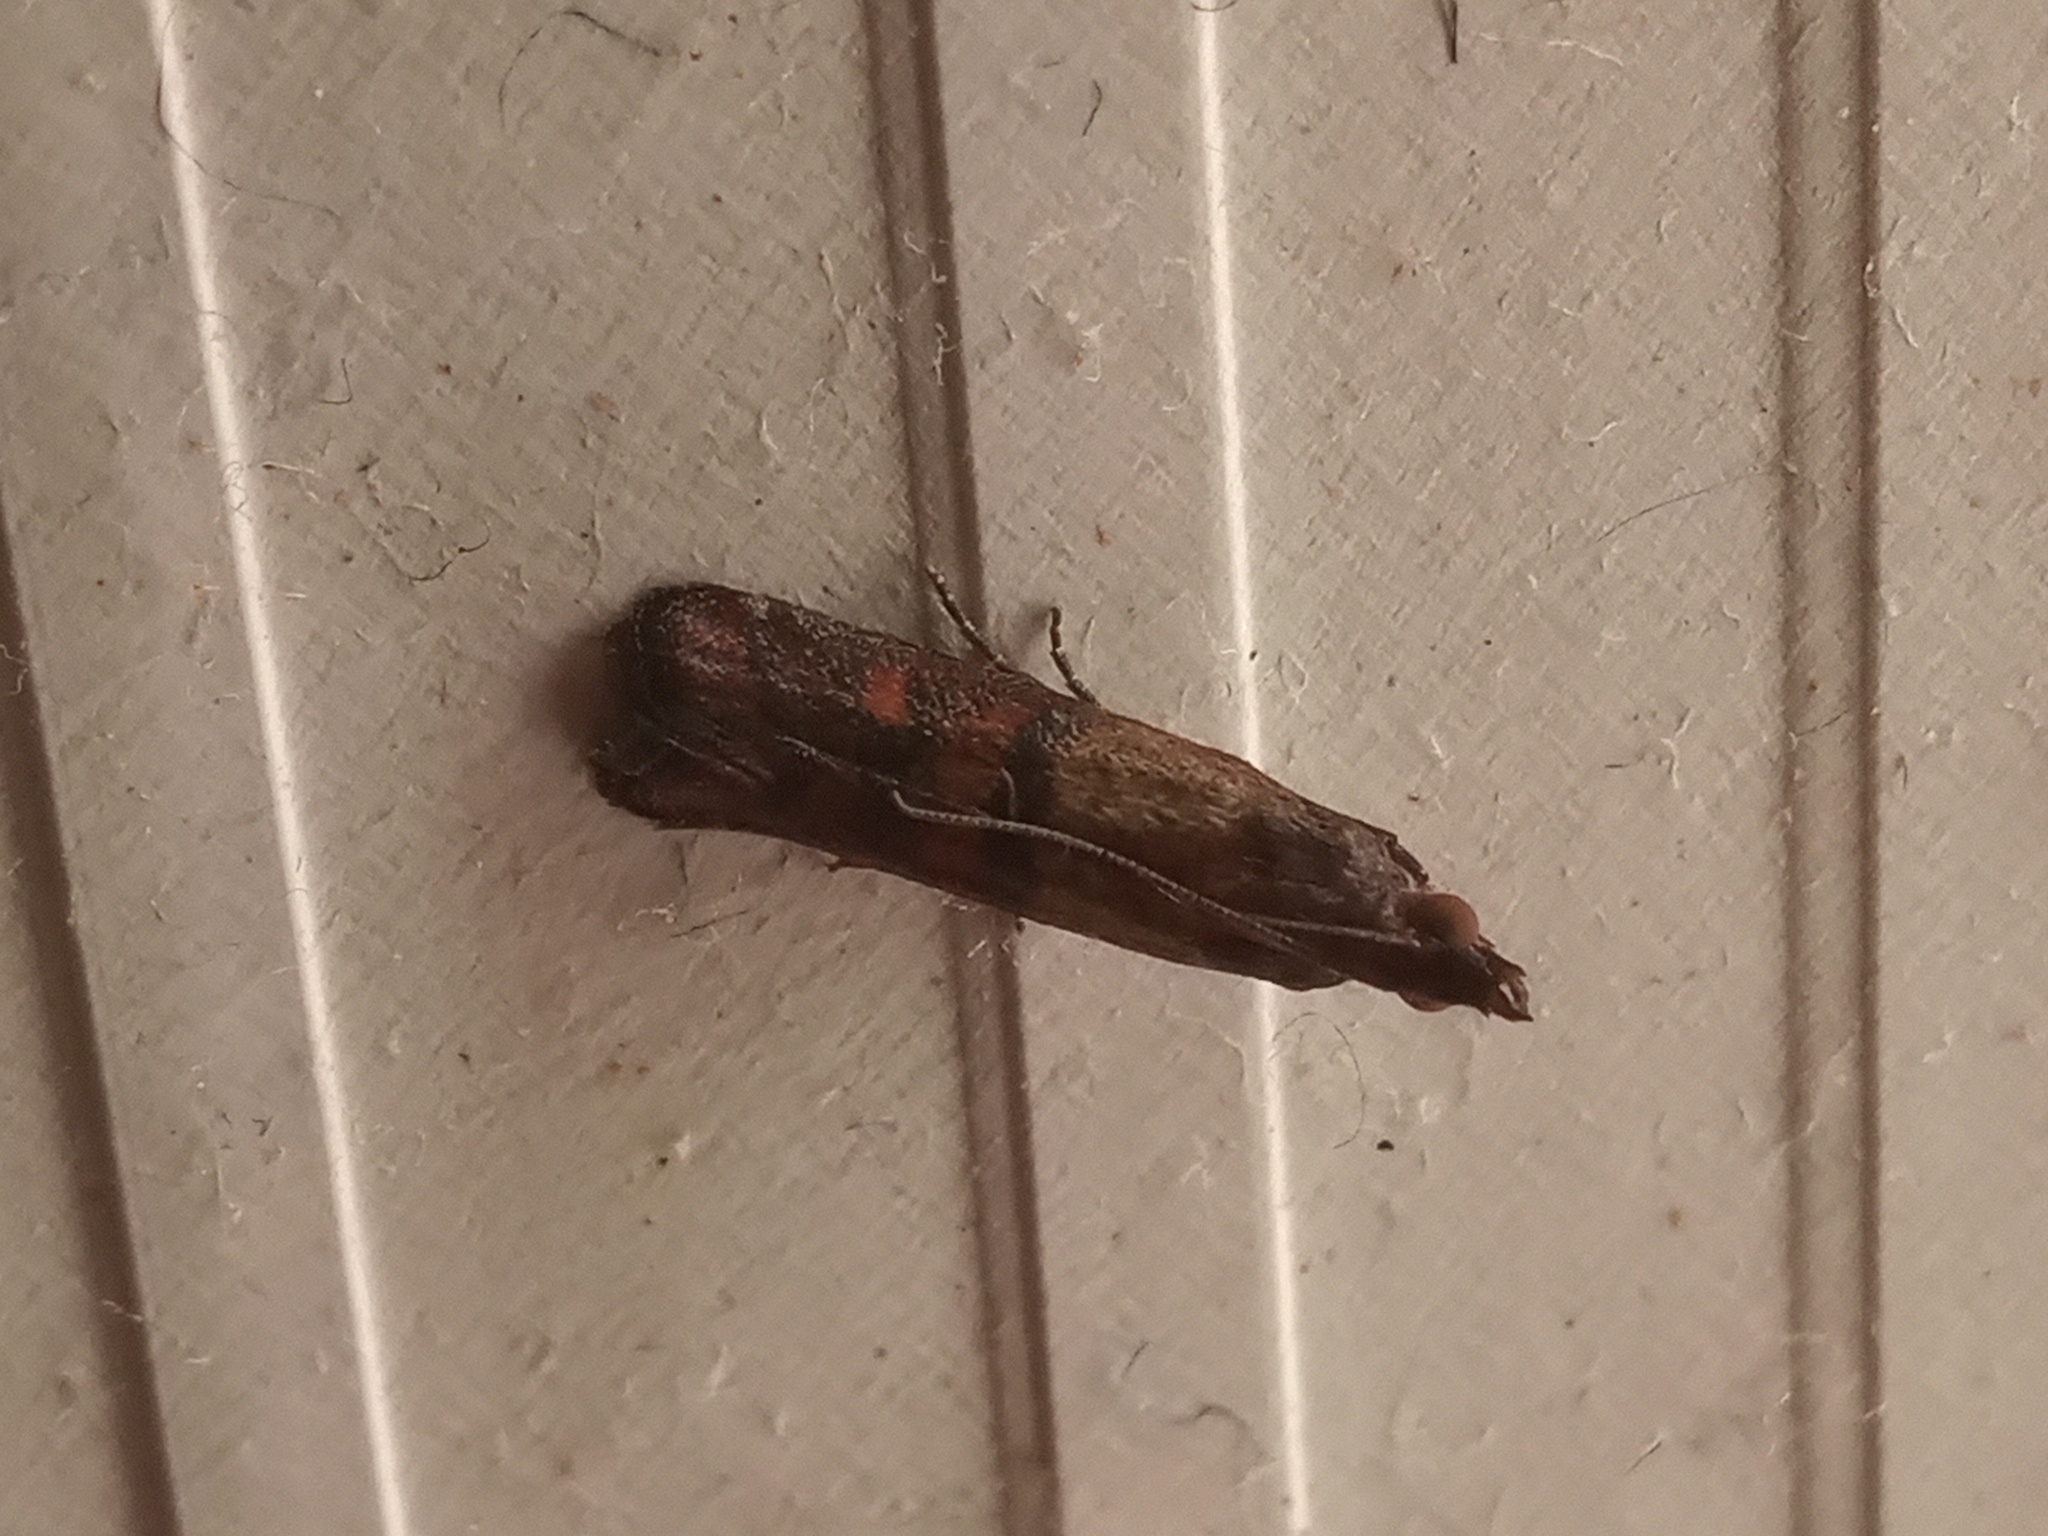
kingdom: Animalia
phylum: Arthropoda
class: Insecta
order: Lepidoptera
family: Pyralidae
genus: Plodia
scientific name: Plodia interpunctella
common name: Indian meal moth
